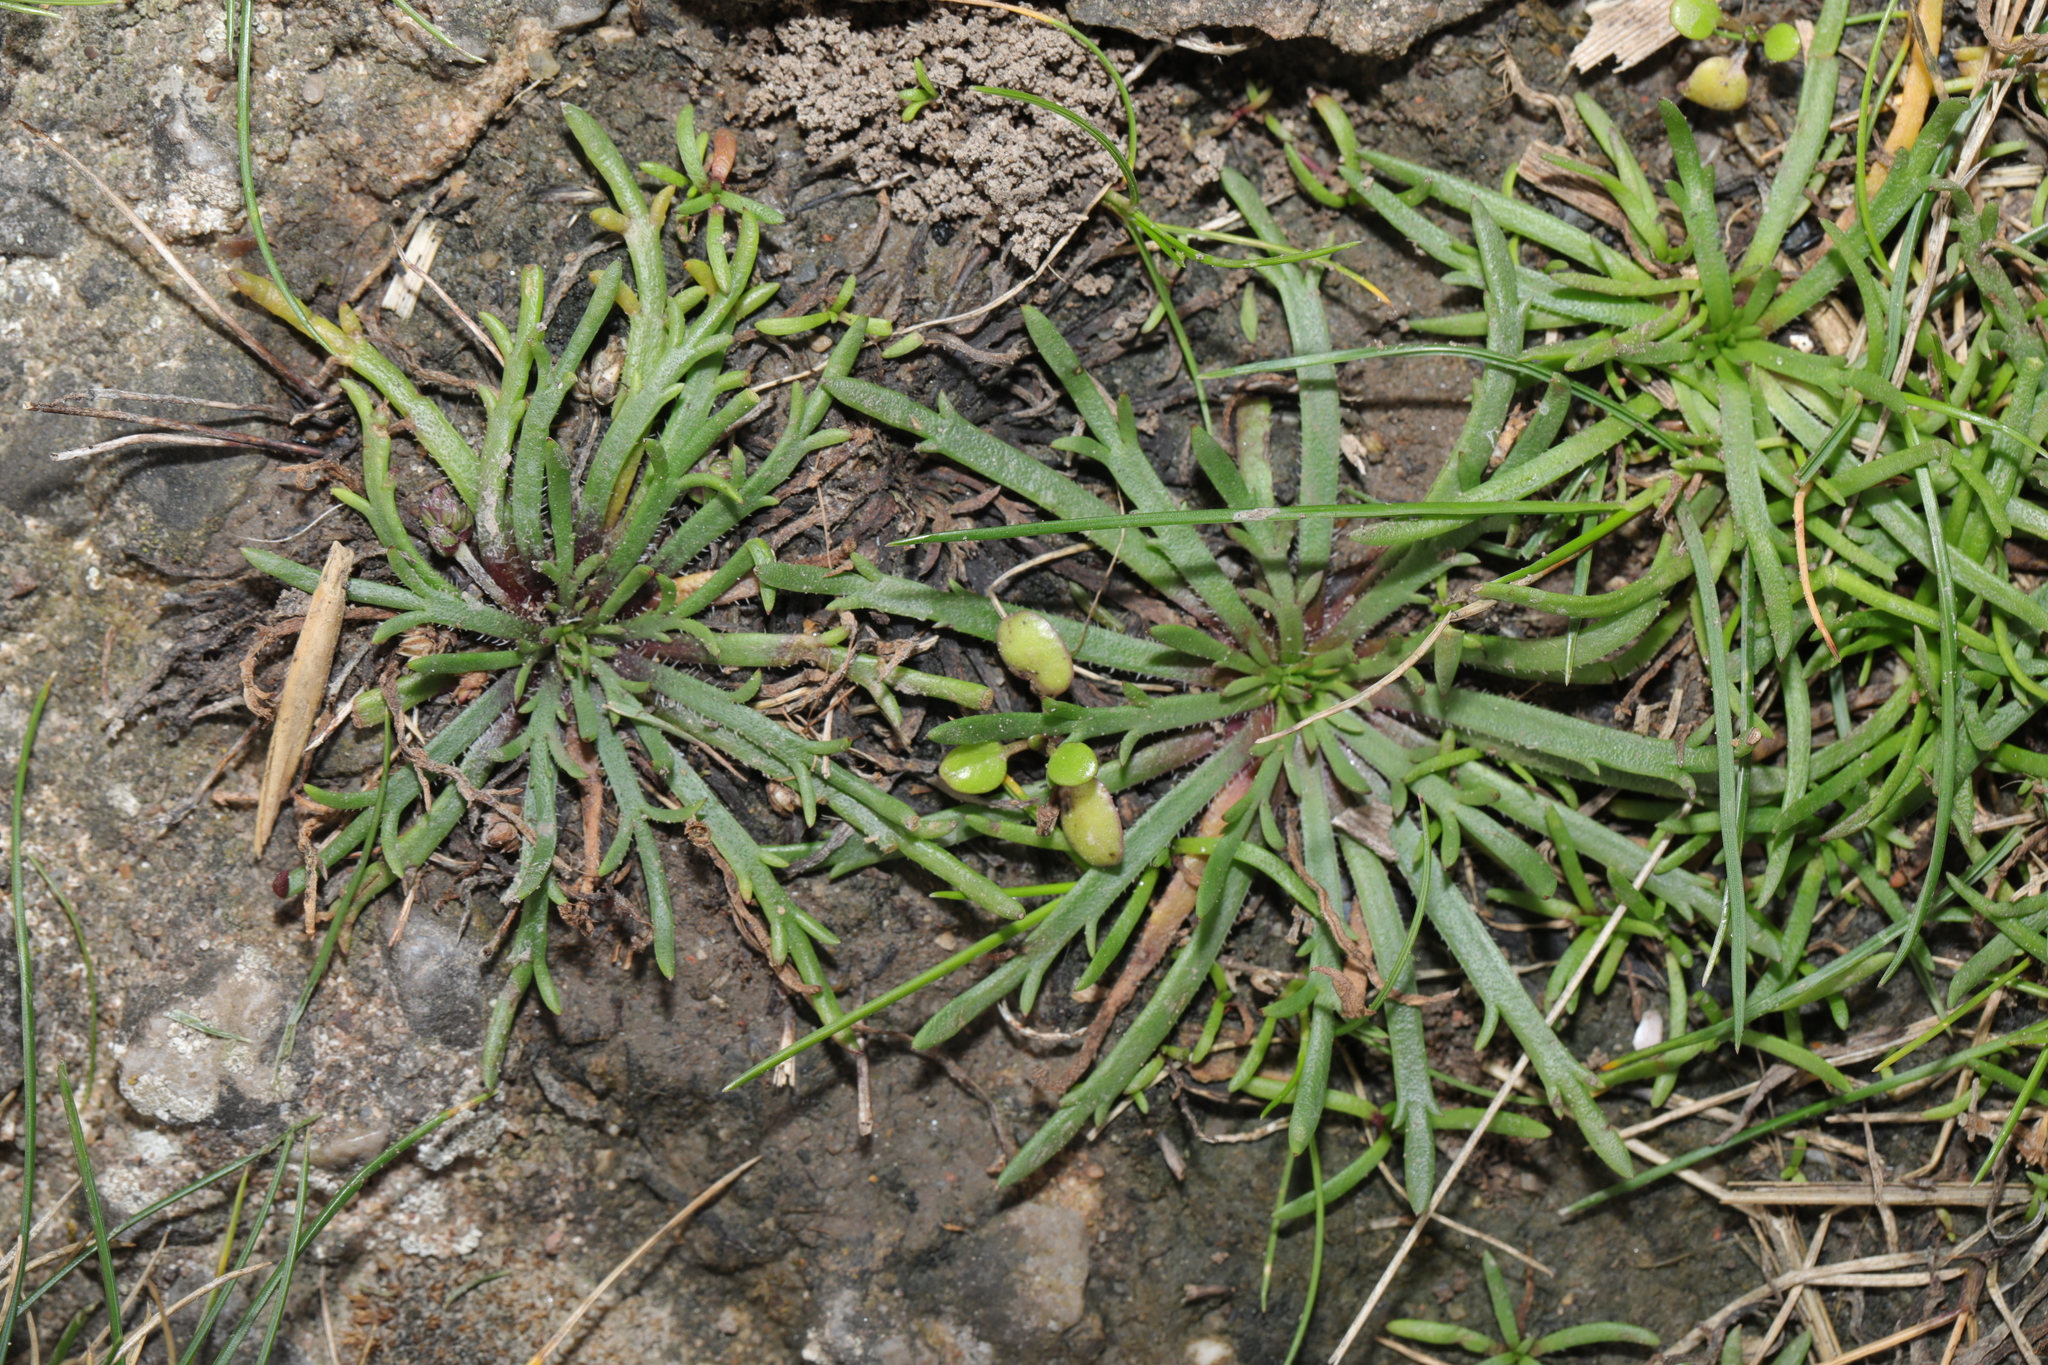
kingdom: Plantae
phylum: Tracheophyta
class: Magnoliopsida
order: Lamiales
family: Plantaginaceae
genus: Plantago
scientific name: Plantago coronopus
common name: Buck's-horn plantain
